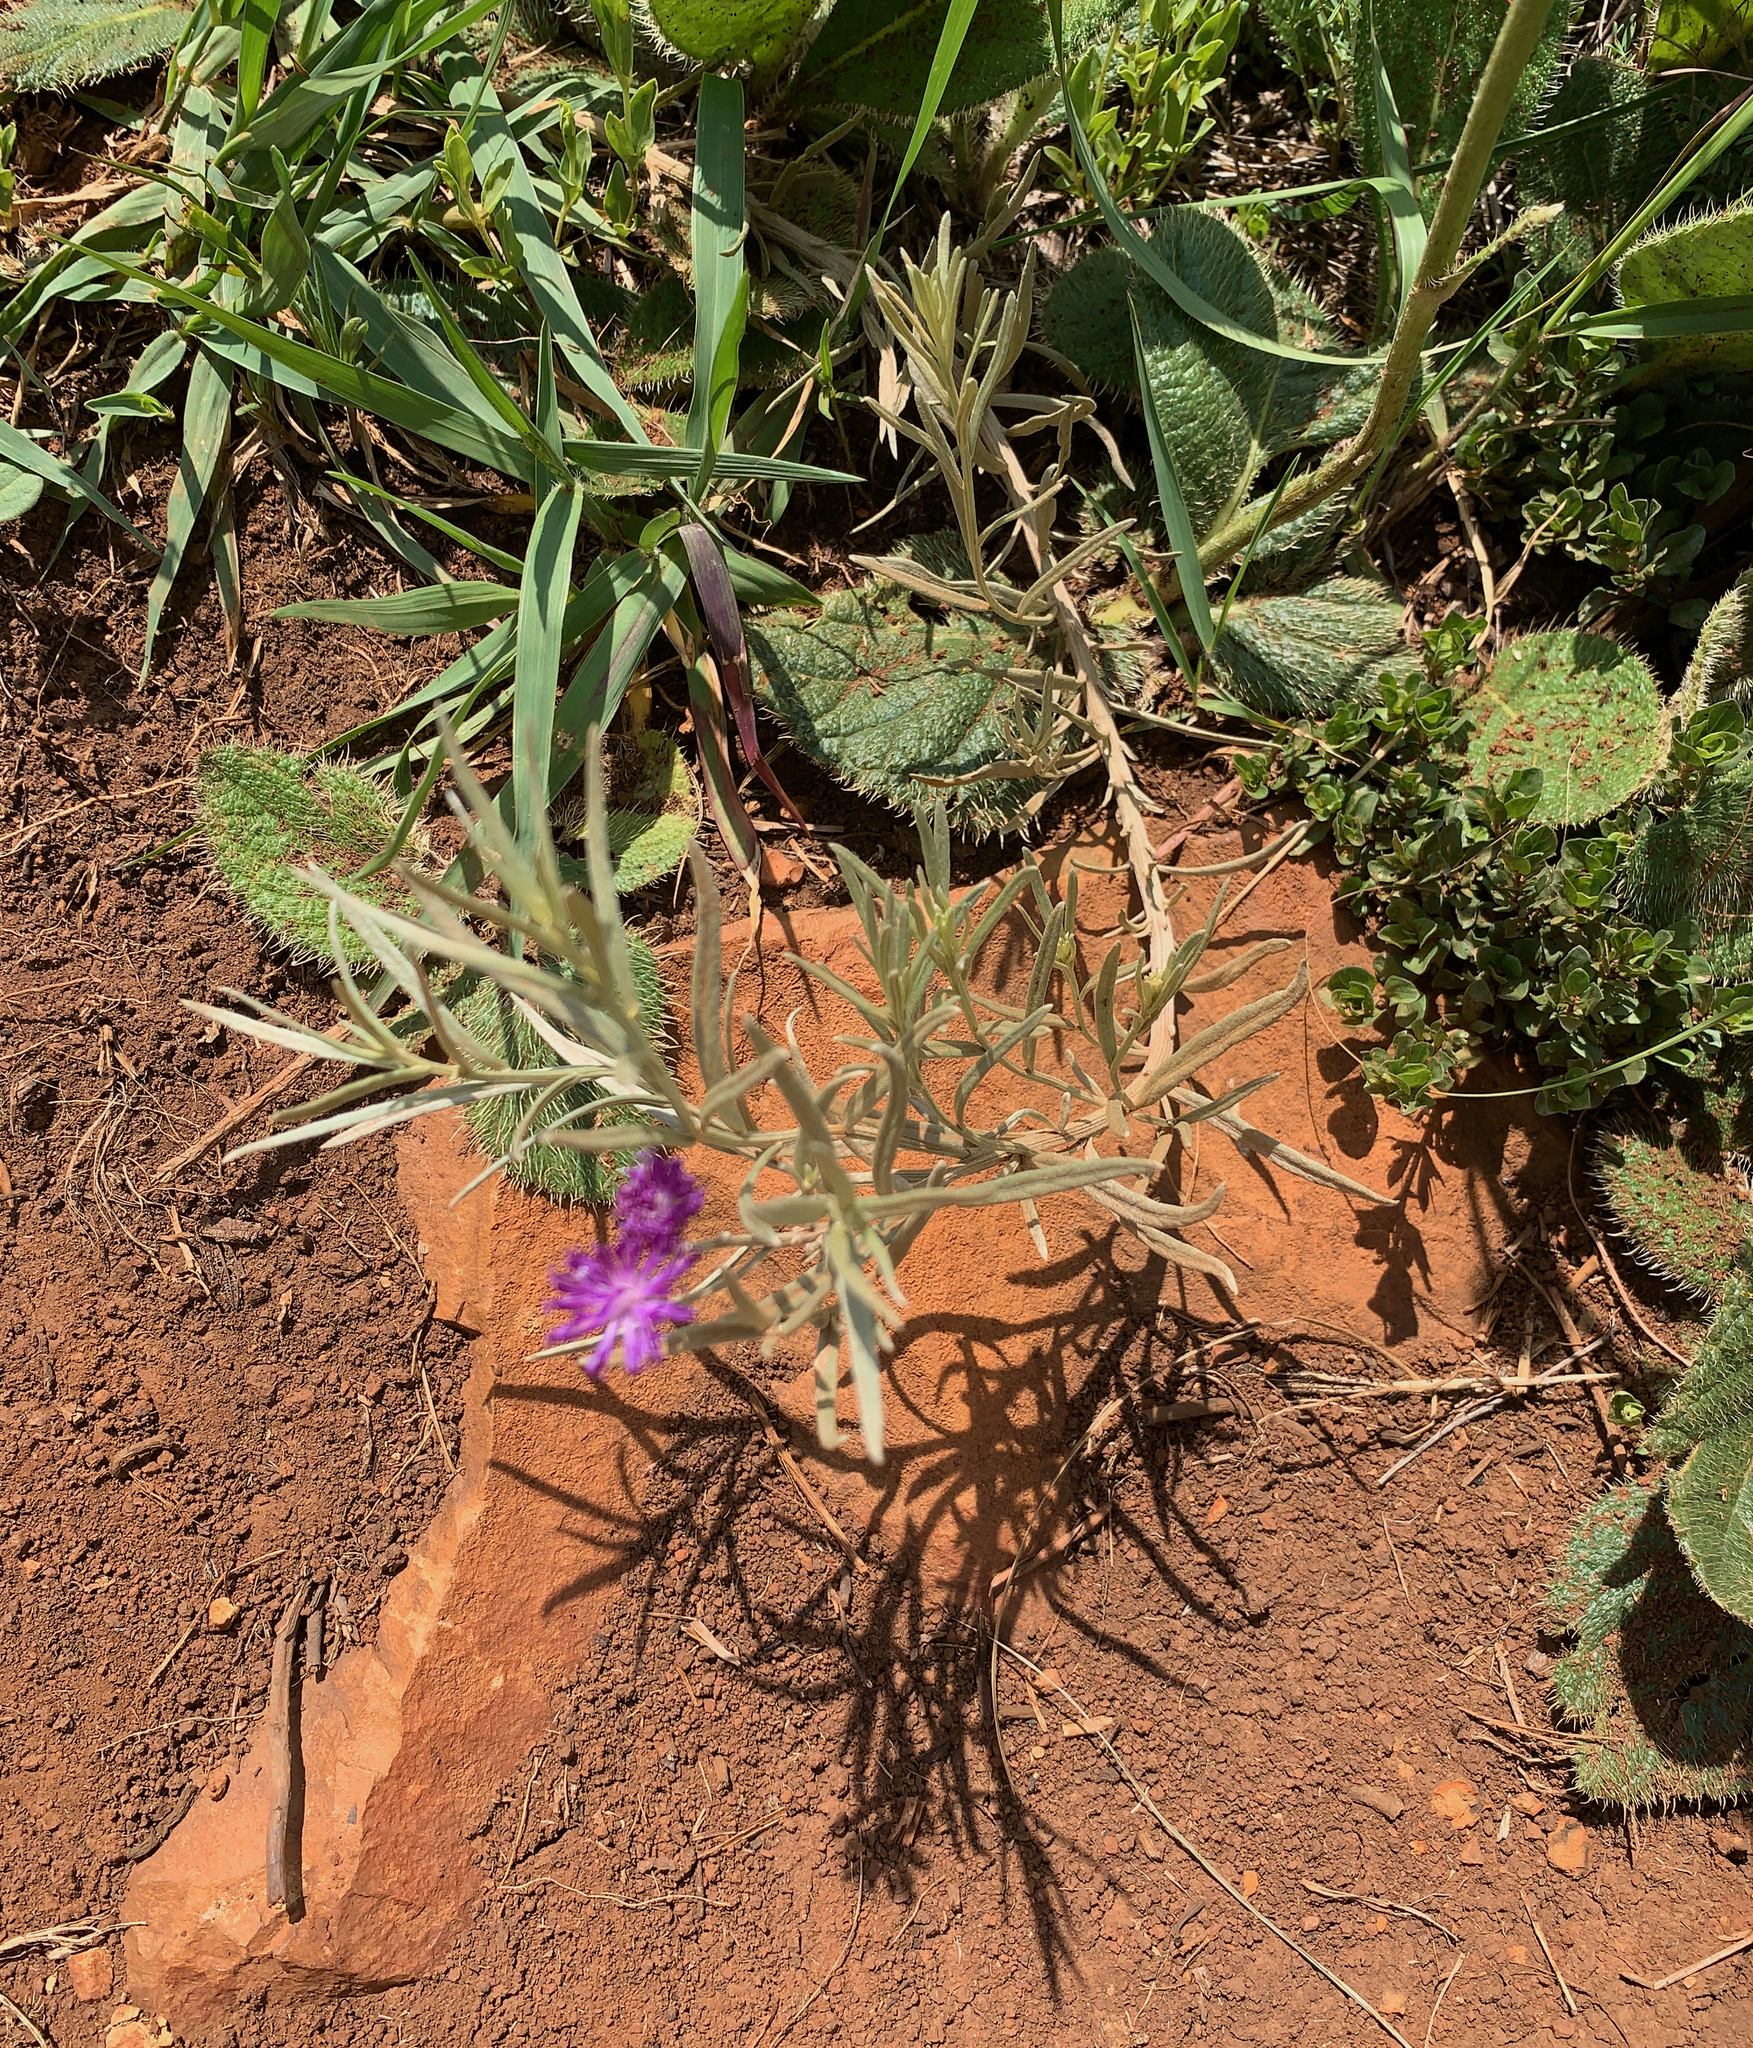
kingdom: Plantae
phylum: Tracheophyta
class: Magnoliopsida
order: Asterales
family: Asteraceae
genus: Hilliardiella
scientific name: Hilliardiella aristata
